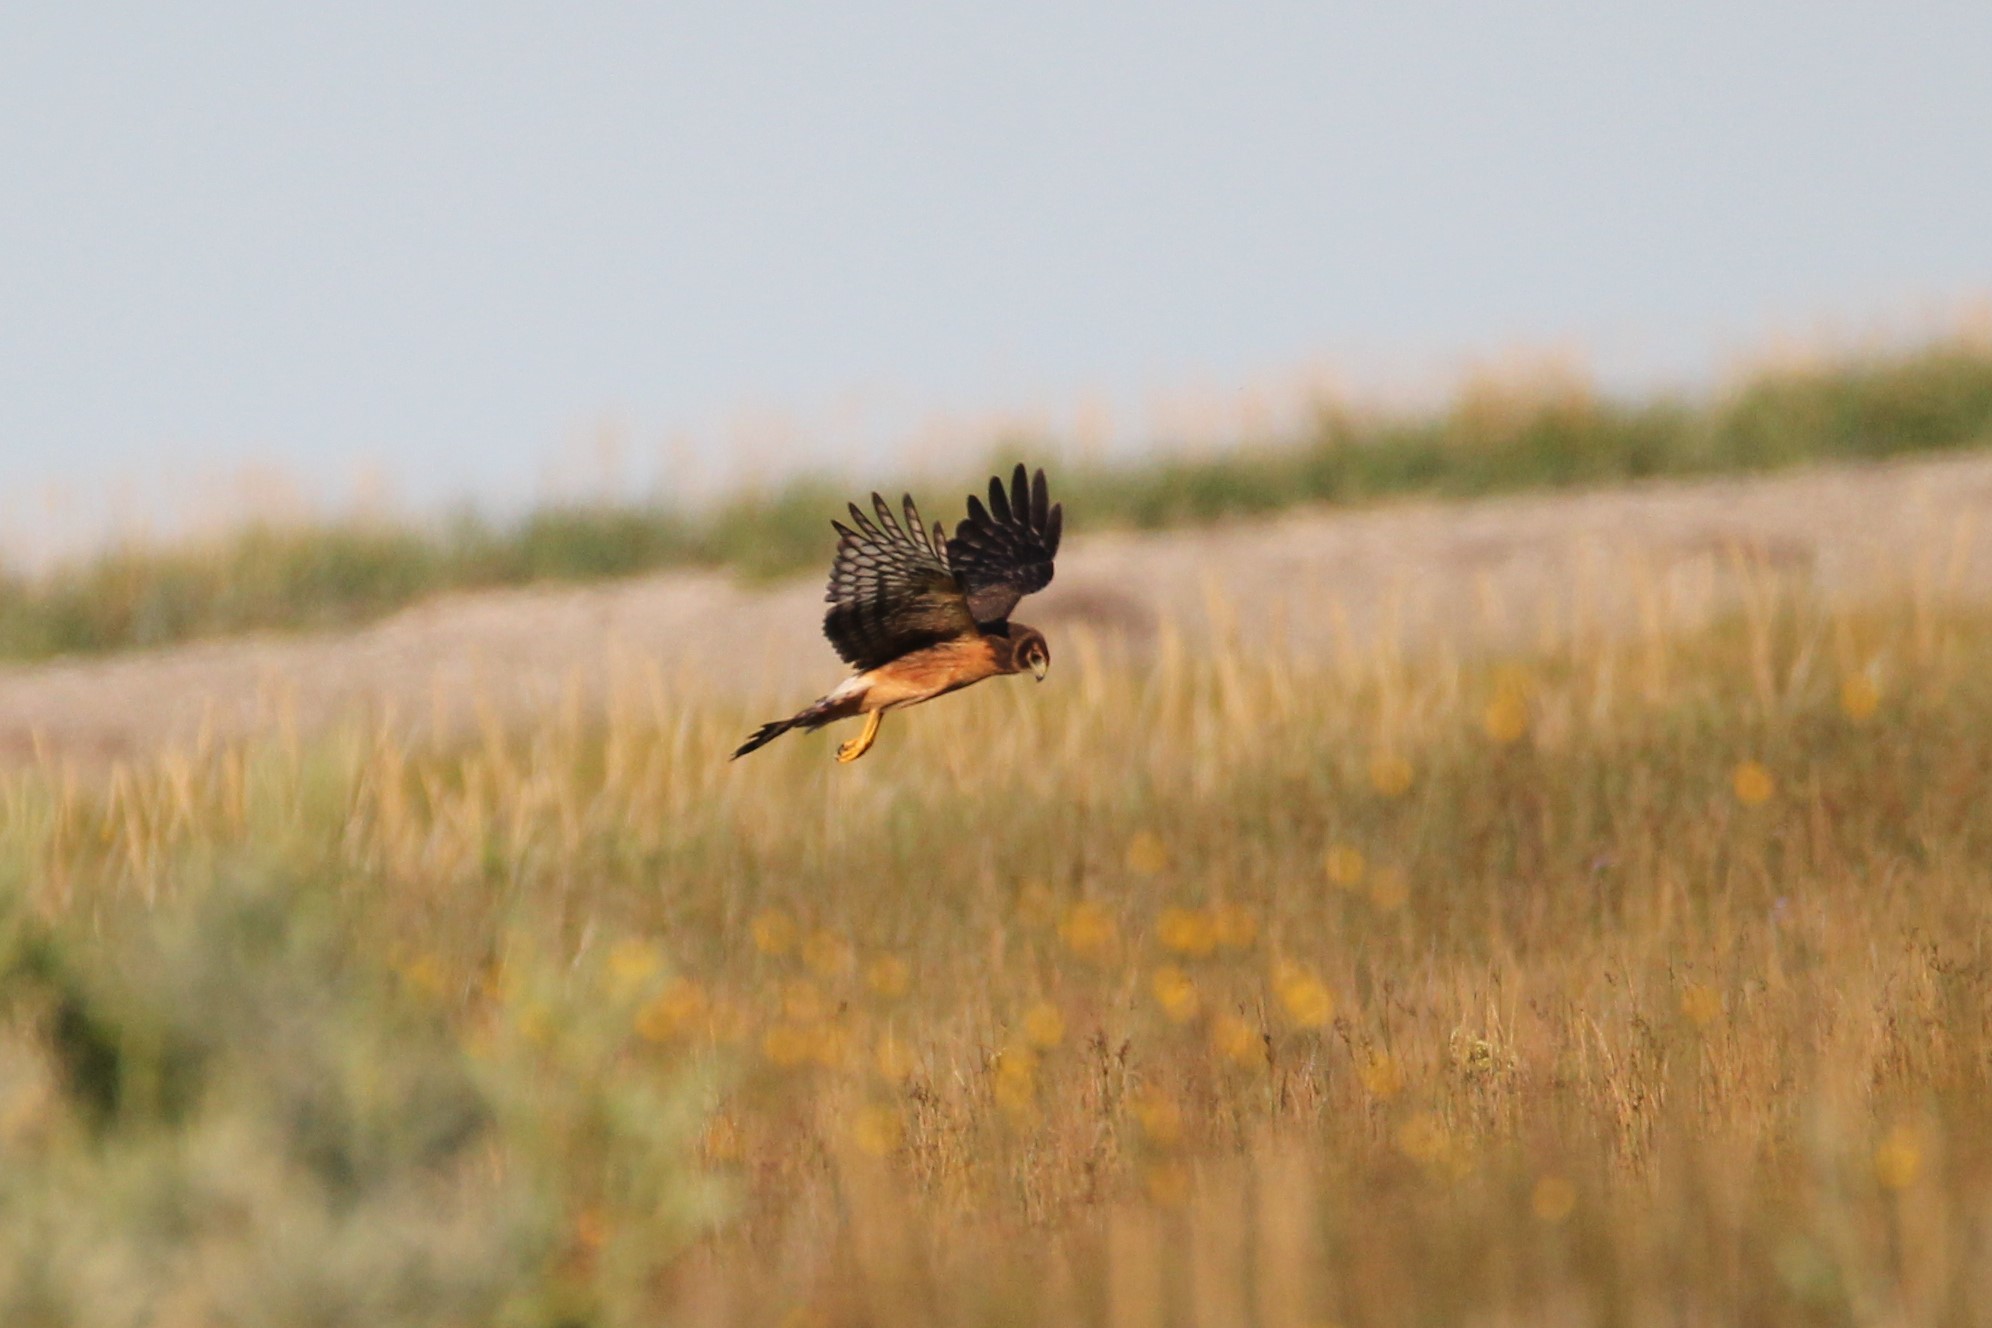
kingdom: Animalia
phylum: Chordata
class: Aves
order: Accipitriformes
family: Accipitridae
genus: Circus
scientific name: Circus cyaneus
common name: Hen harrier
